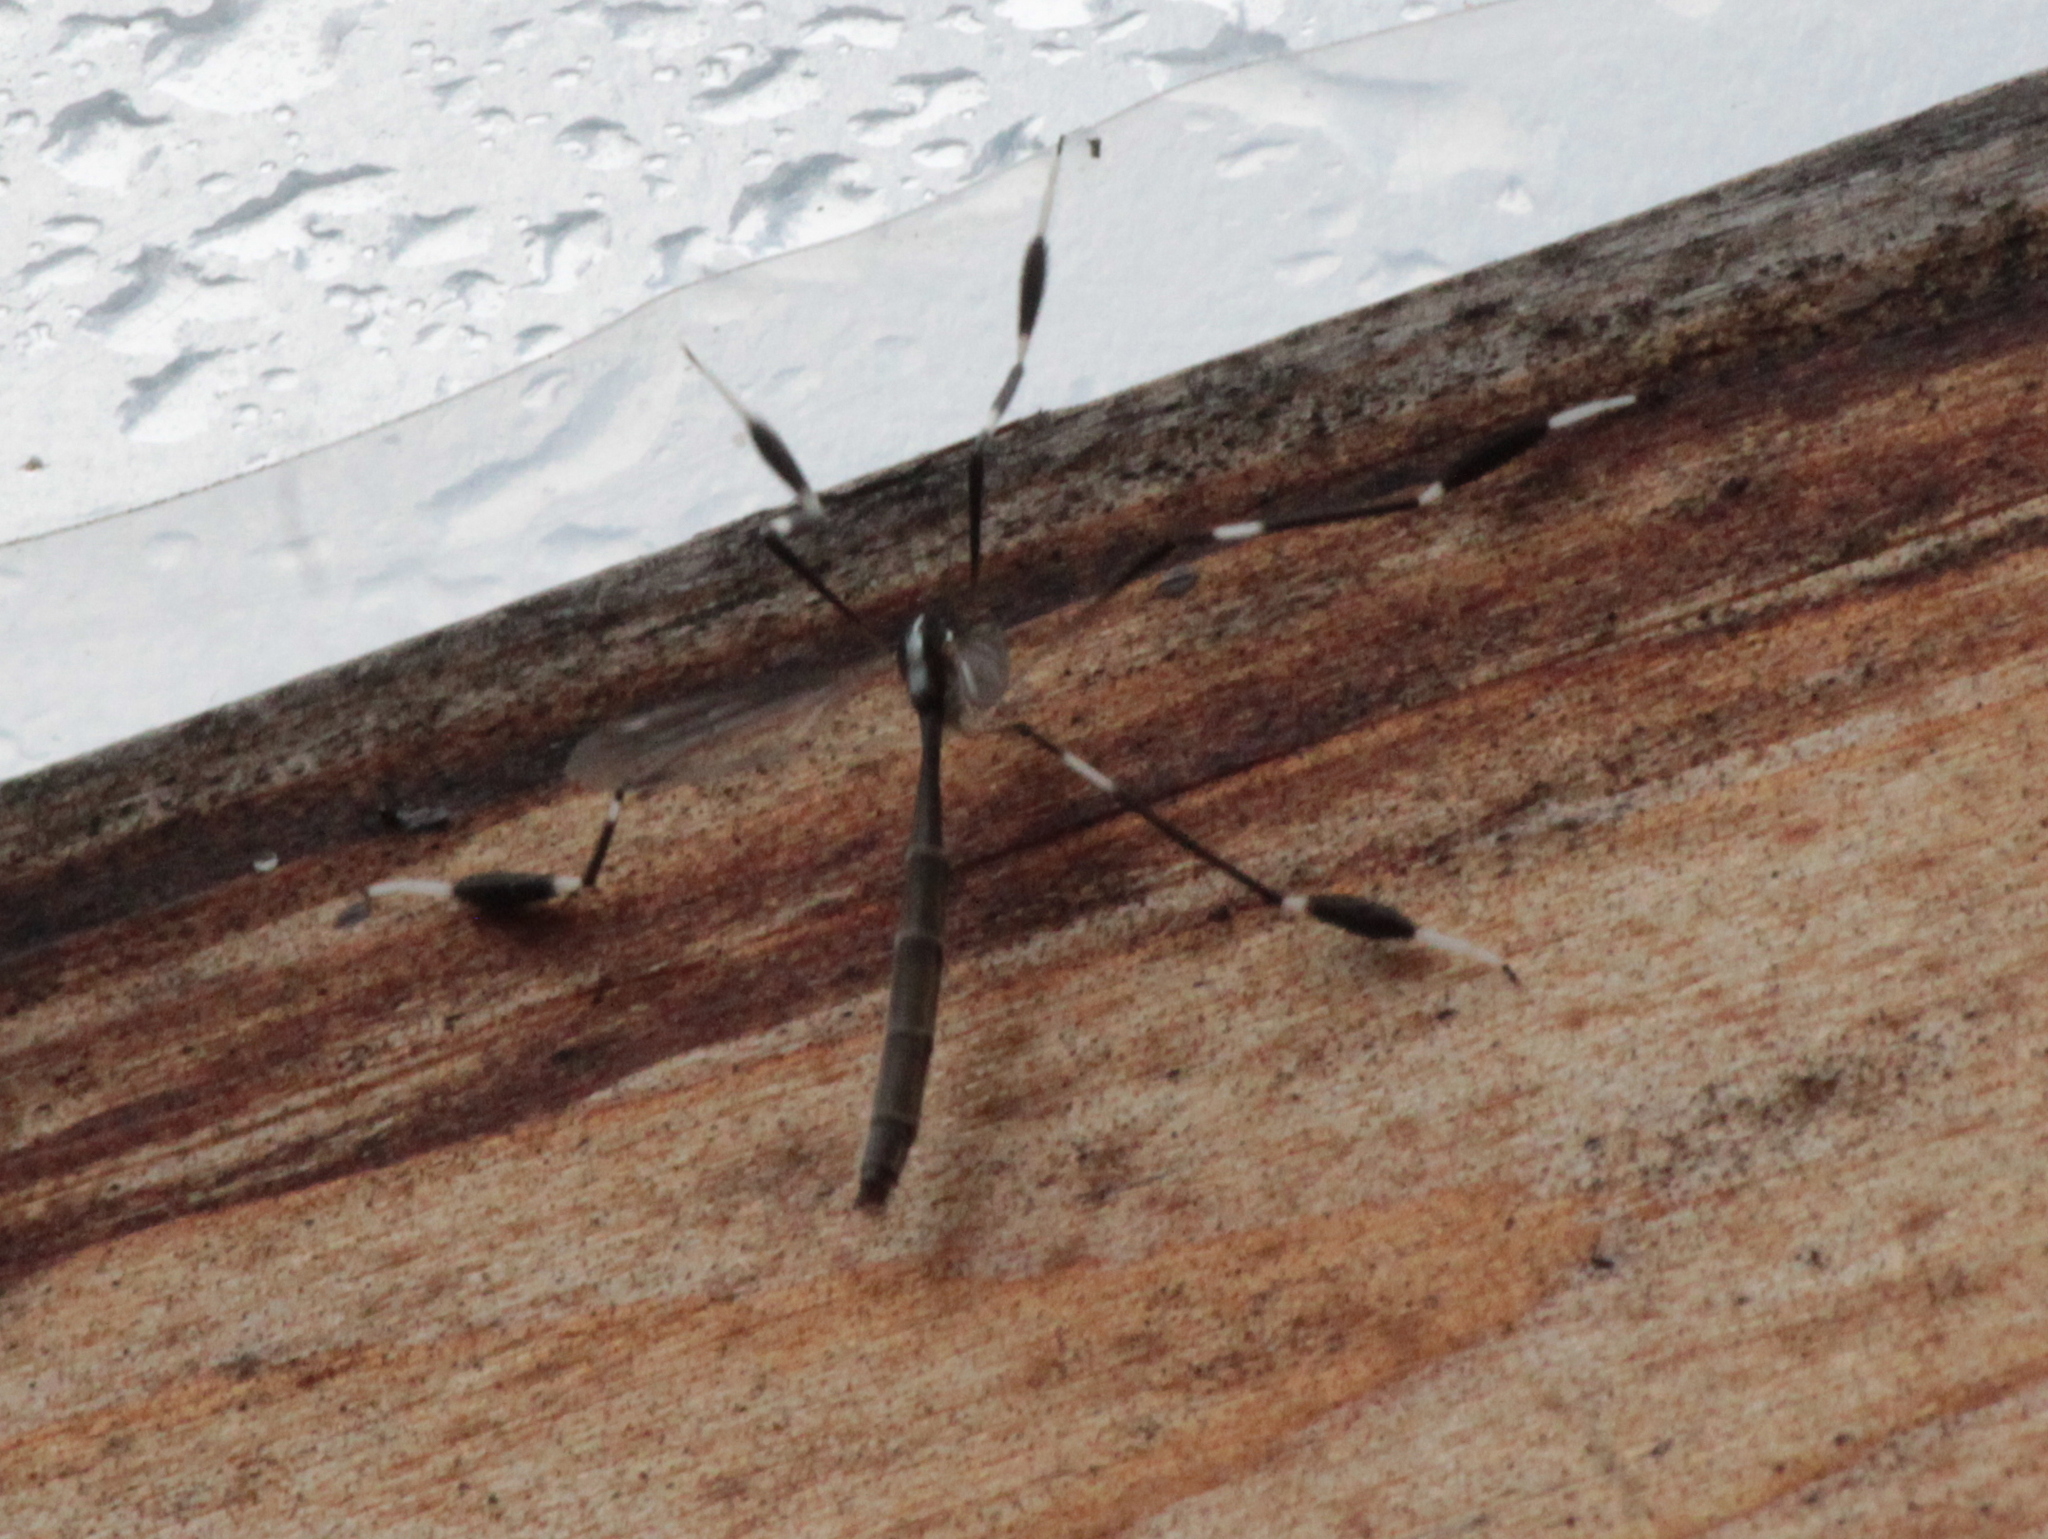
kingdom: Animalia
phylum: Arthropoda
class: Insecta
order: Diptera
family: Ptychopteridae
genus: Bittacomorpha
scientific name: Bittacomorpha clavipes
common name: Eastern phantom crane fly
